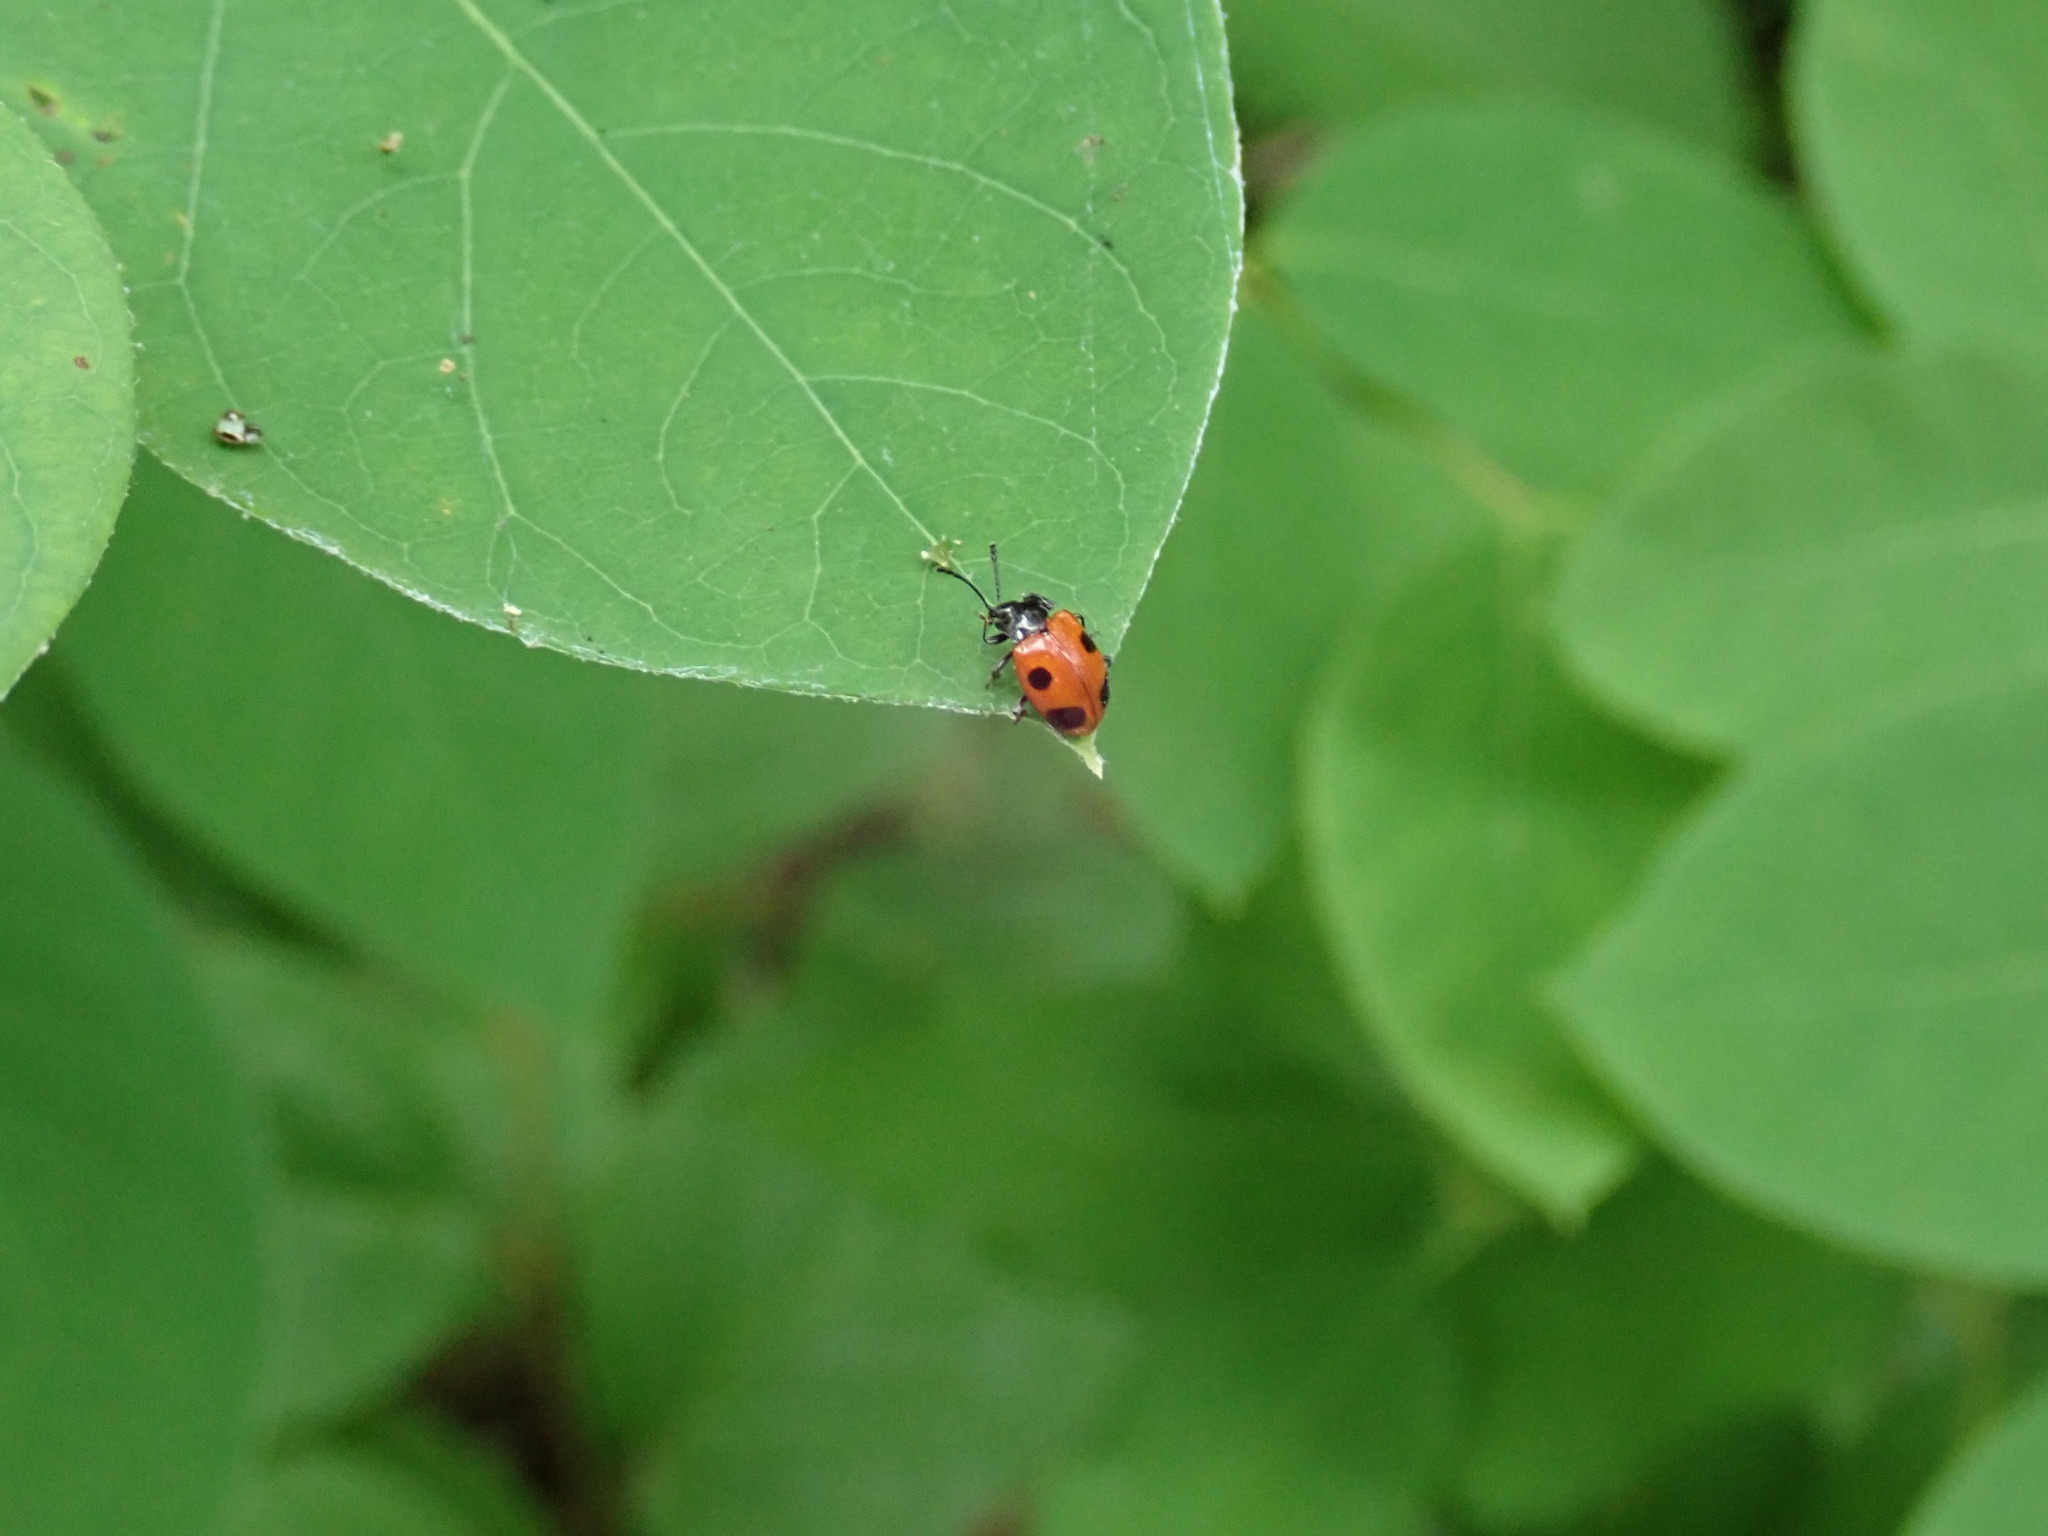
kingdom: Animalia
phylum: Arthropoda
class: Insecta
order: Coleoptera
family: Endomychidae
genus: Endomychus
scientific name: Endomychus biguttatus
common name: Handsome fungus beetle
